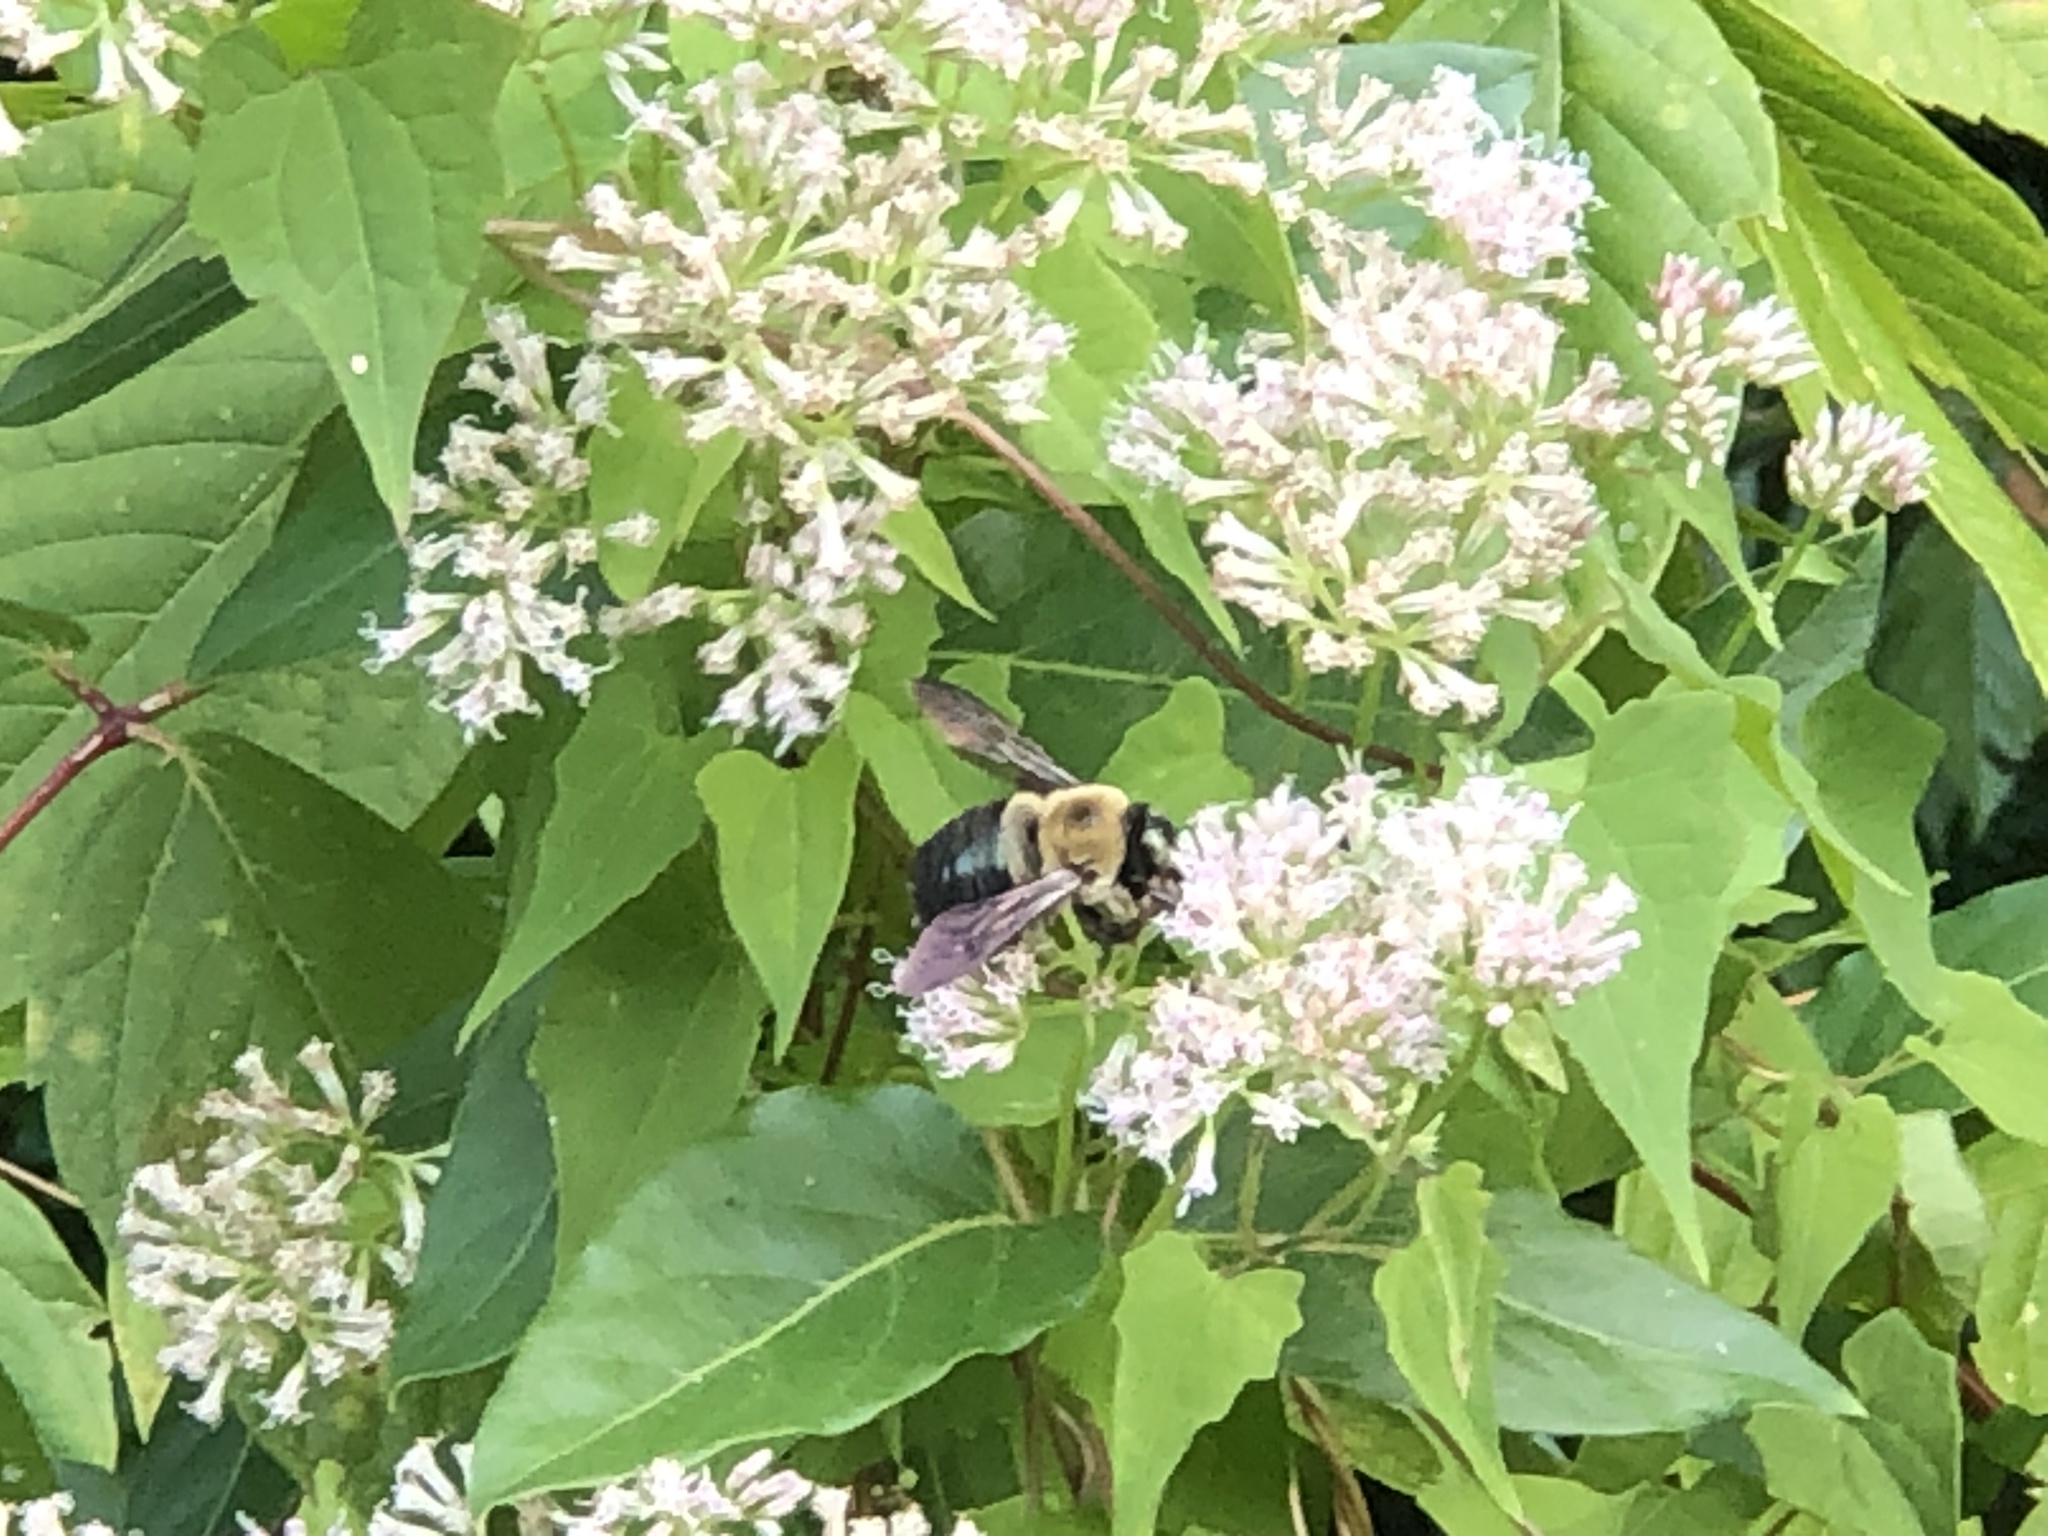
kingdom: Animalia
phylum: Arthropoda
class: Insecta
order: Hymenoptera
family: Apidae
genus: Xylocopa
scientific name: Xylocopa virginica
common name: Carpenter bee
